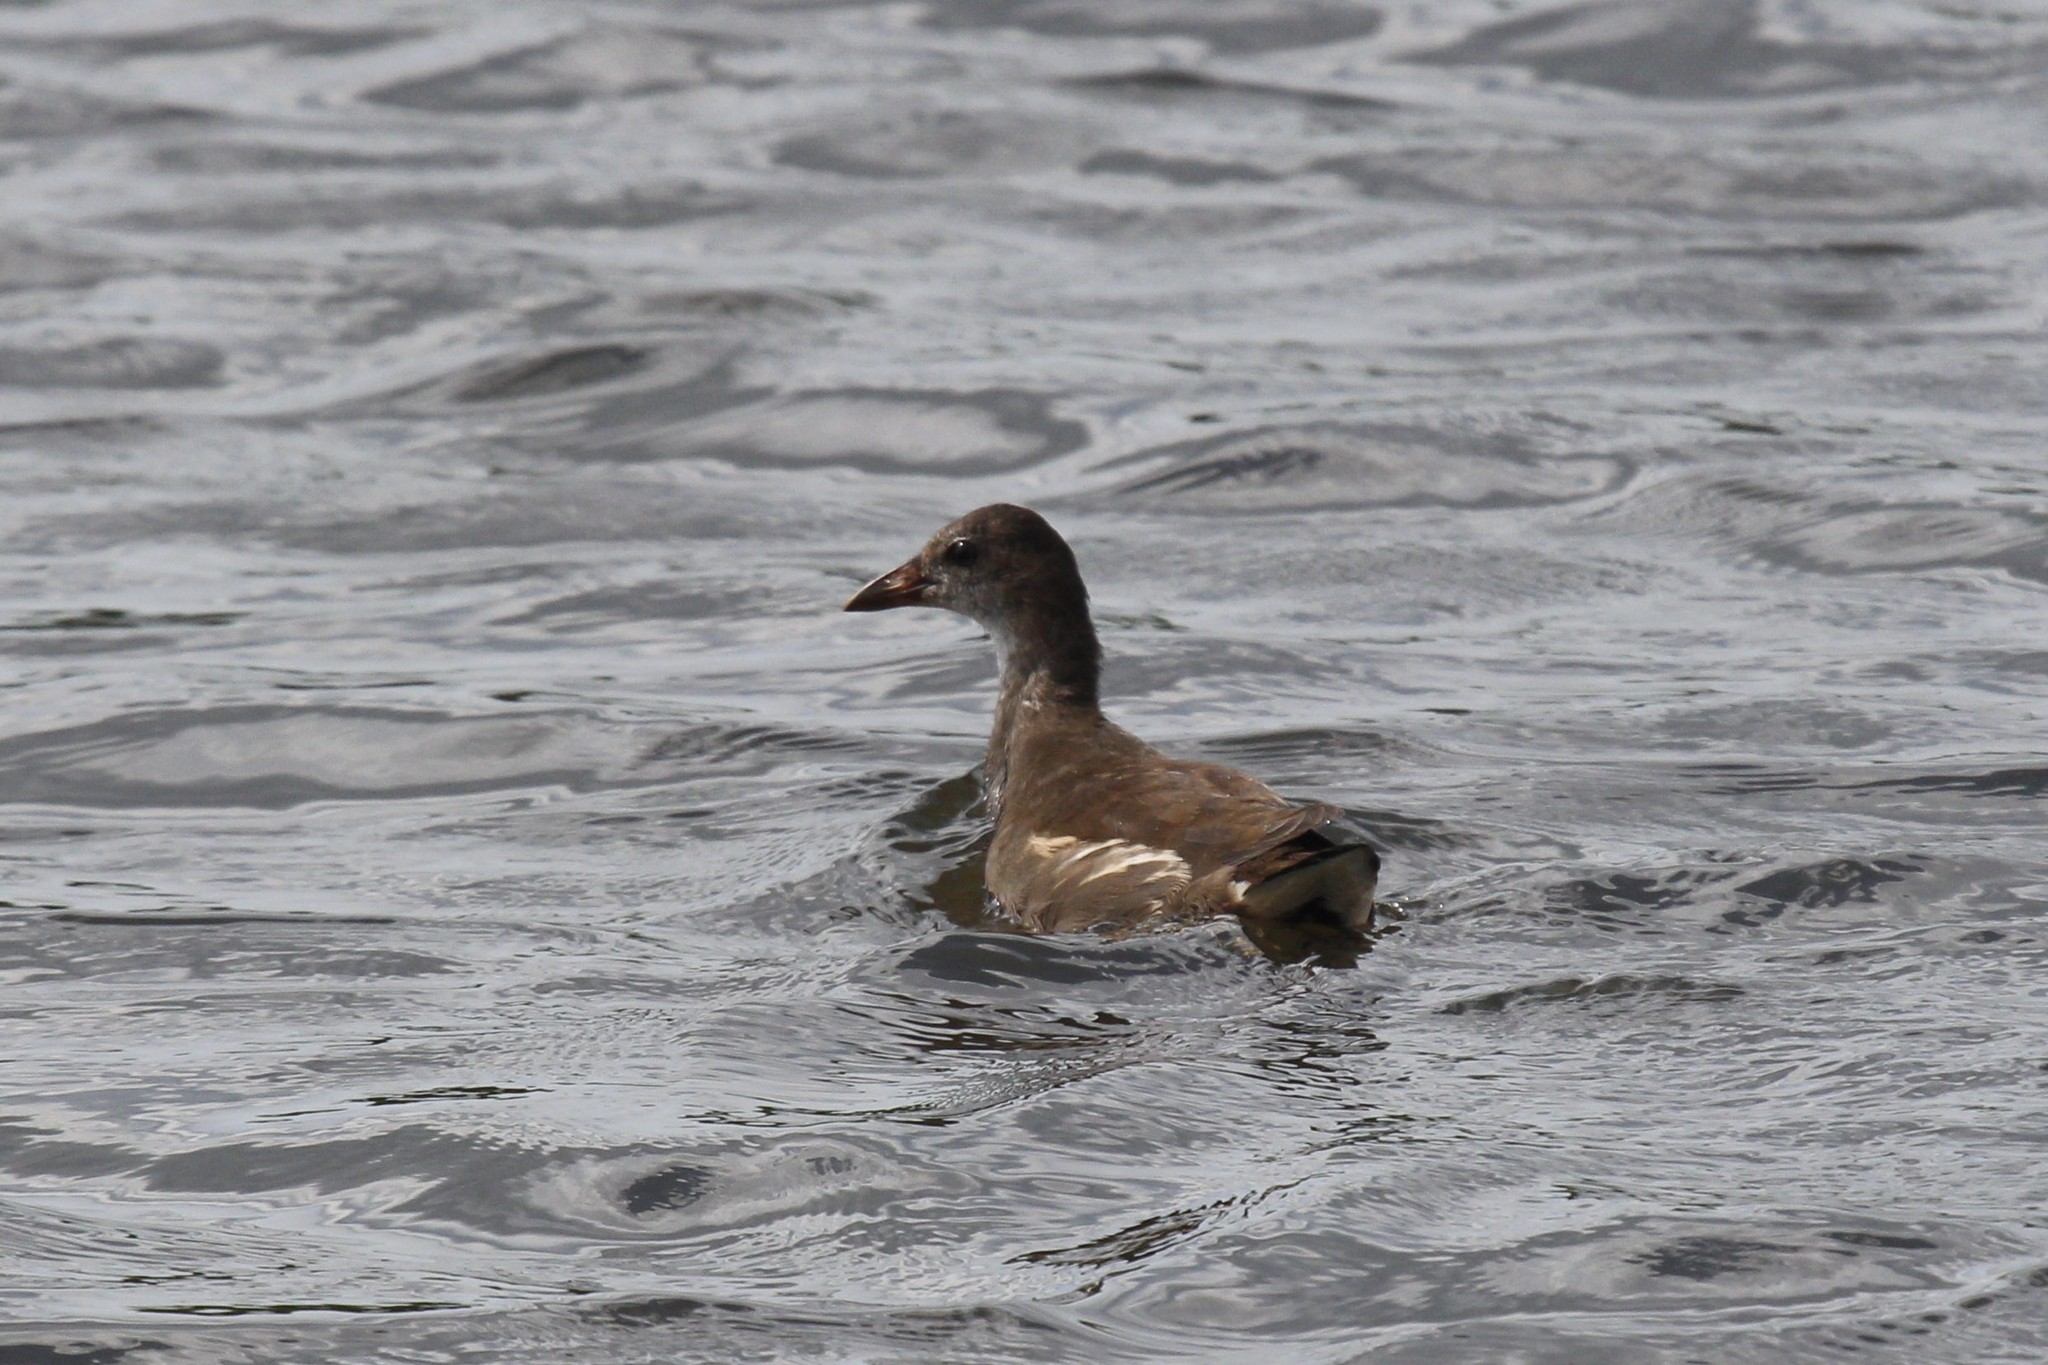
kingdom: Animalia
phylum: Chordata
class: Aves
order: Gruiformes
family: Rallidae
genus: Gallinula
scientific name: Gallinula chloropus
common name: Common moorhen
